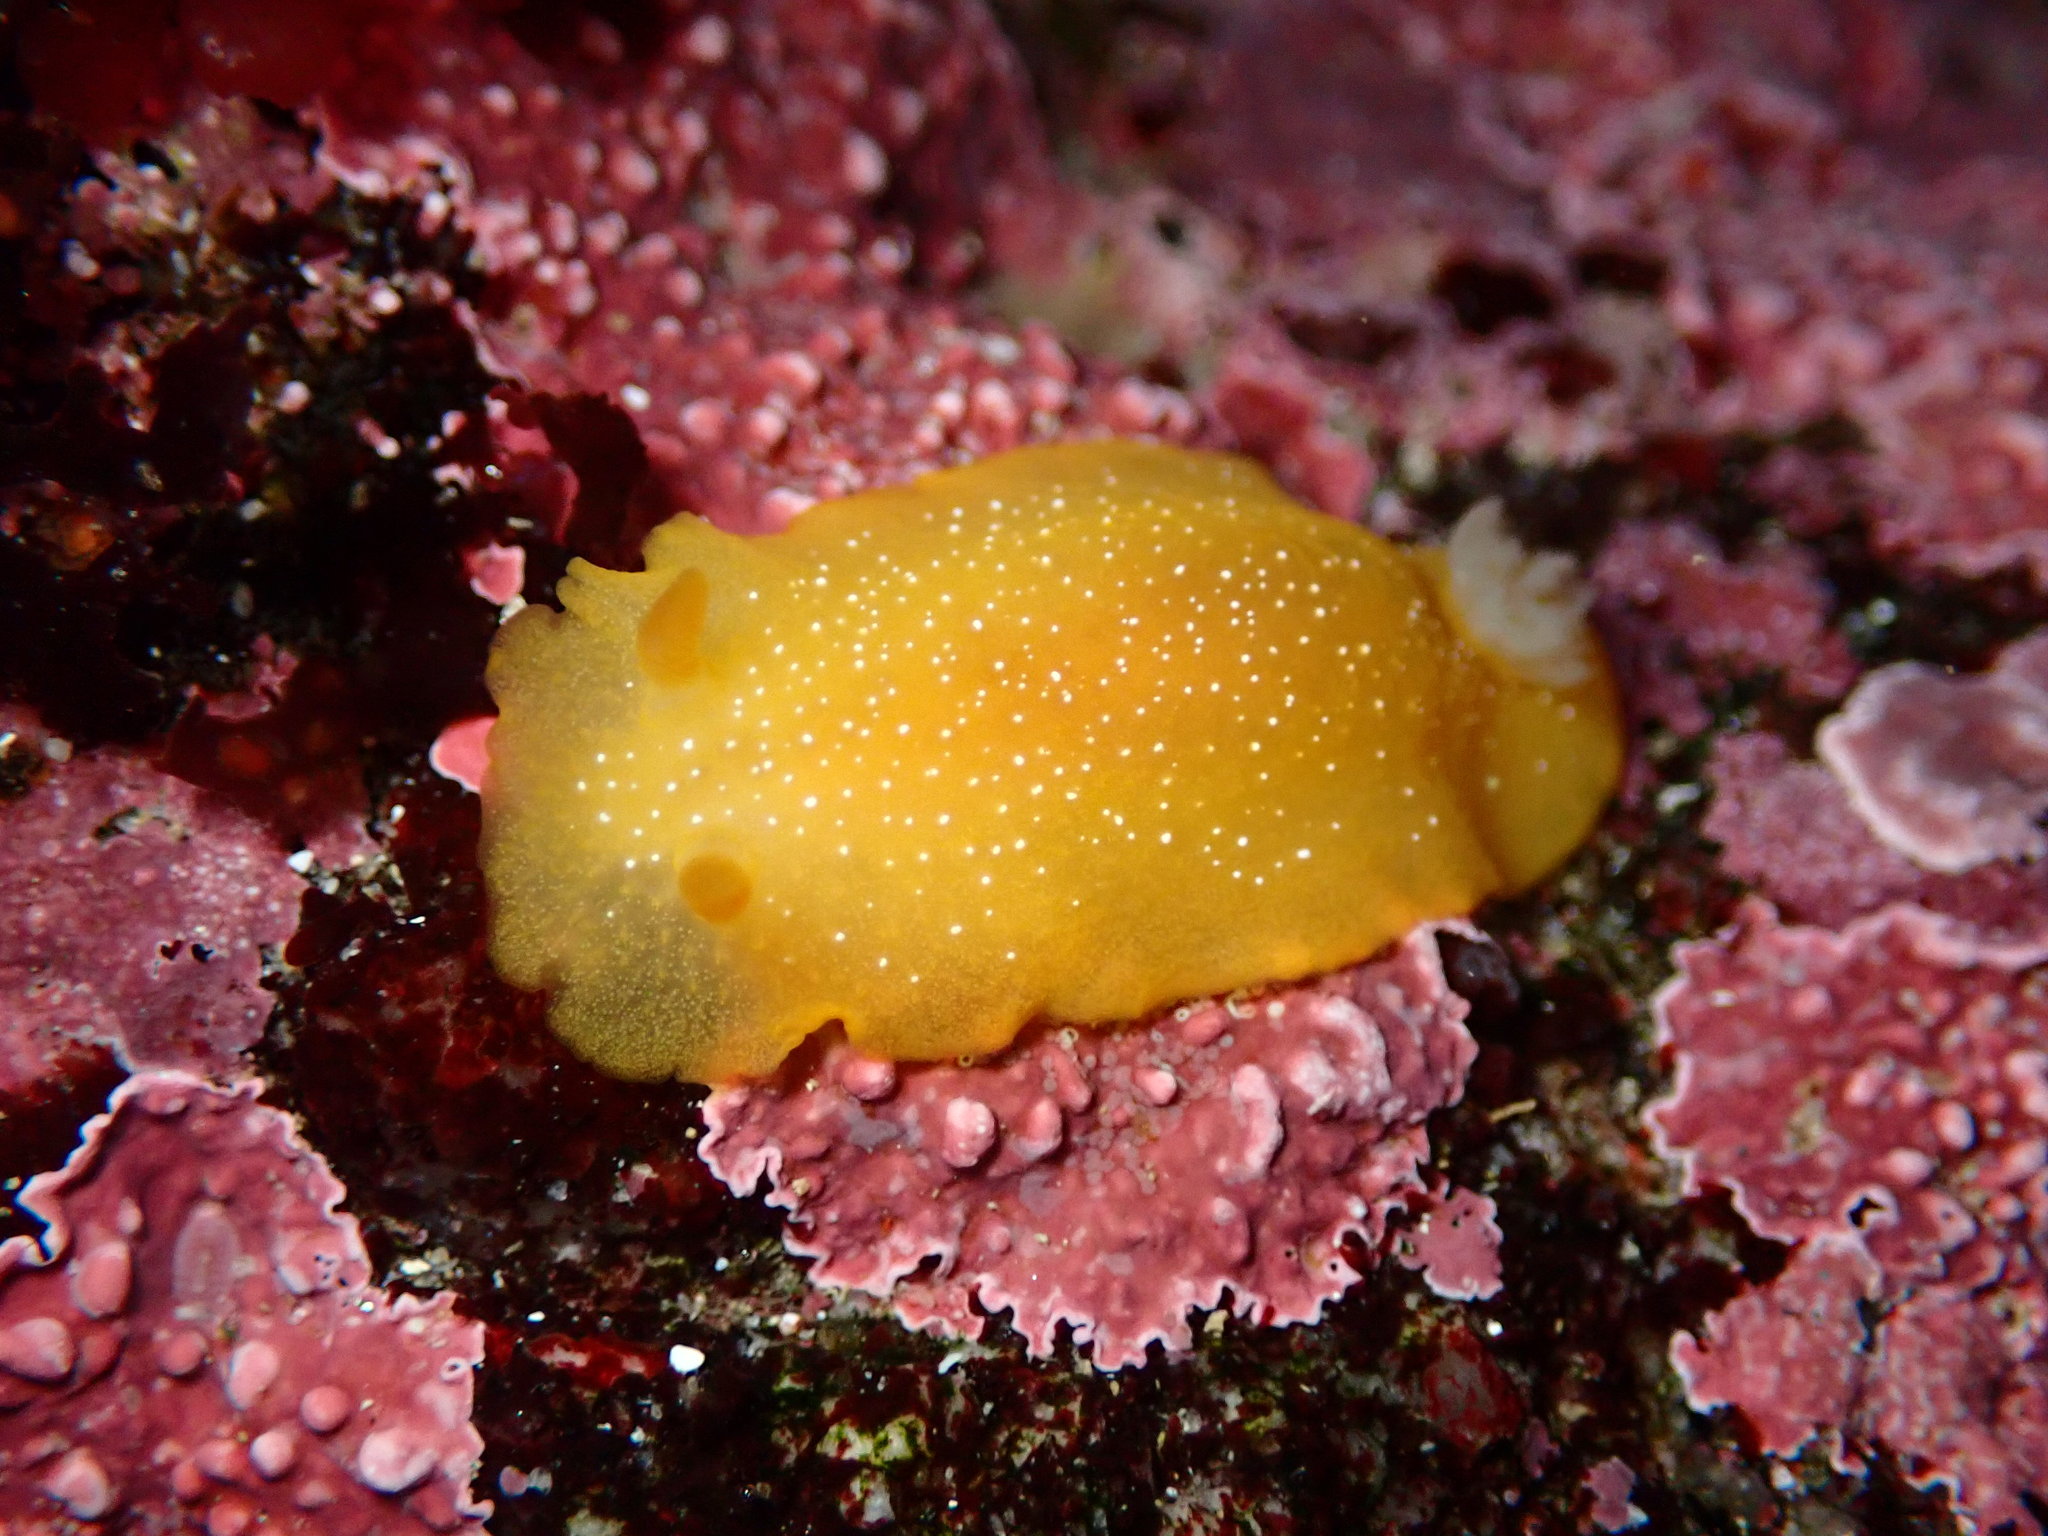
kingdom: Animalia
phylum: Mollusca
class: Gastropoda
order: Nudibranchia
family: Dendrodorididae
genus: Doriopsilla
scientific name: Doriopsilla fulva
